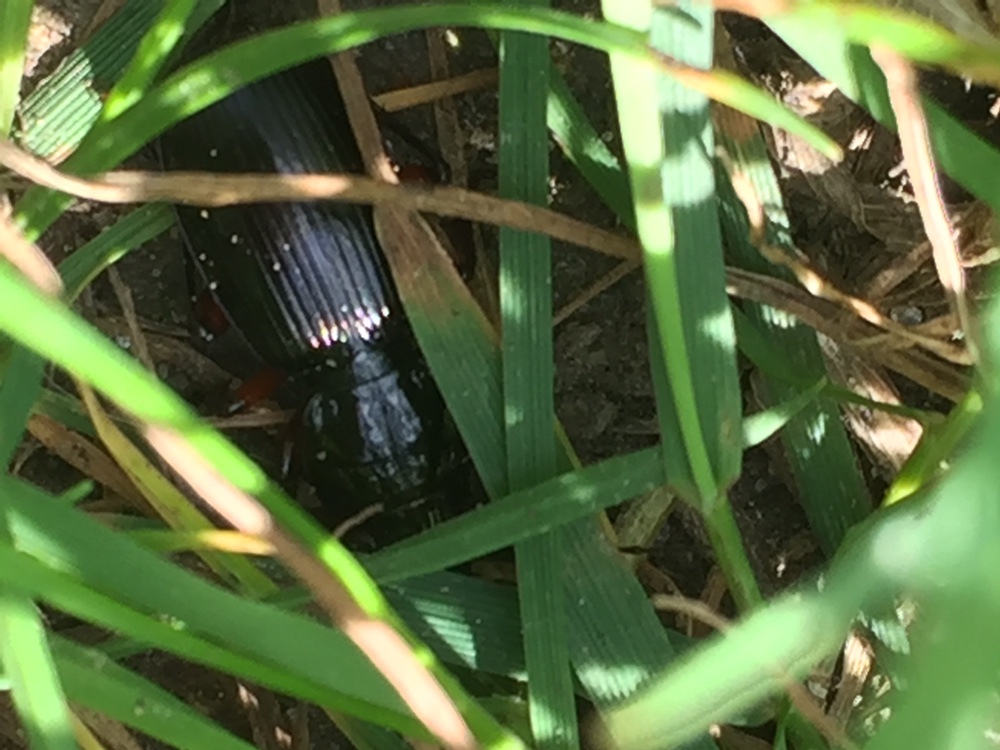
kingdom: Animalia
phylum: Arthropoda
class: Insecta
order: Coleoptera
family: Carabidae
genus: Pterostichus
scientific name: Pterostichus madidus
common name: Black clock
